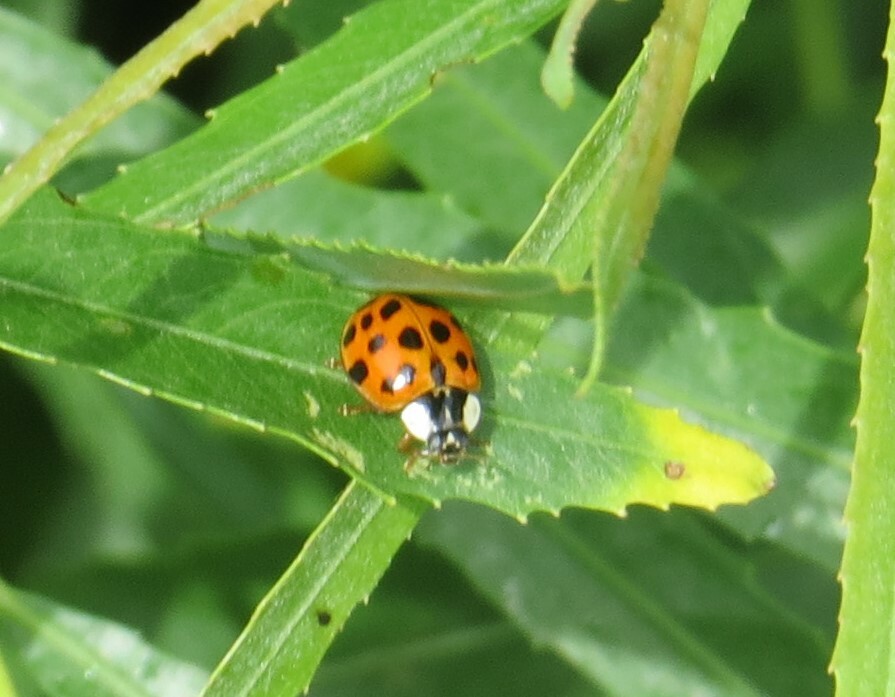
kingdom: Animalia
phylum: Arthropoda
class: Insecta
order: Coleoptera
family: Coccinellidae
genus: Harmonia
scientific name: Harmonia axyridis
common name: Harlequin ladybird
